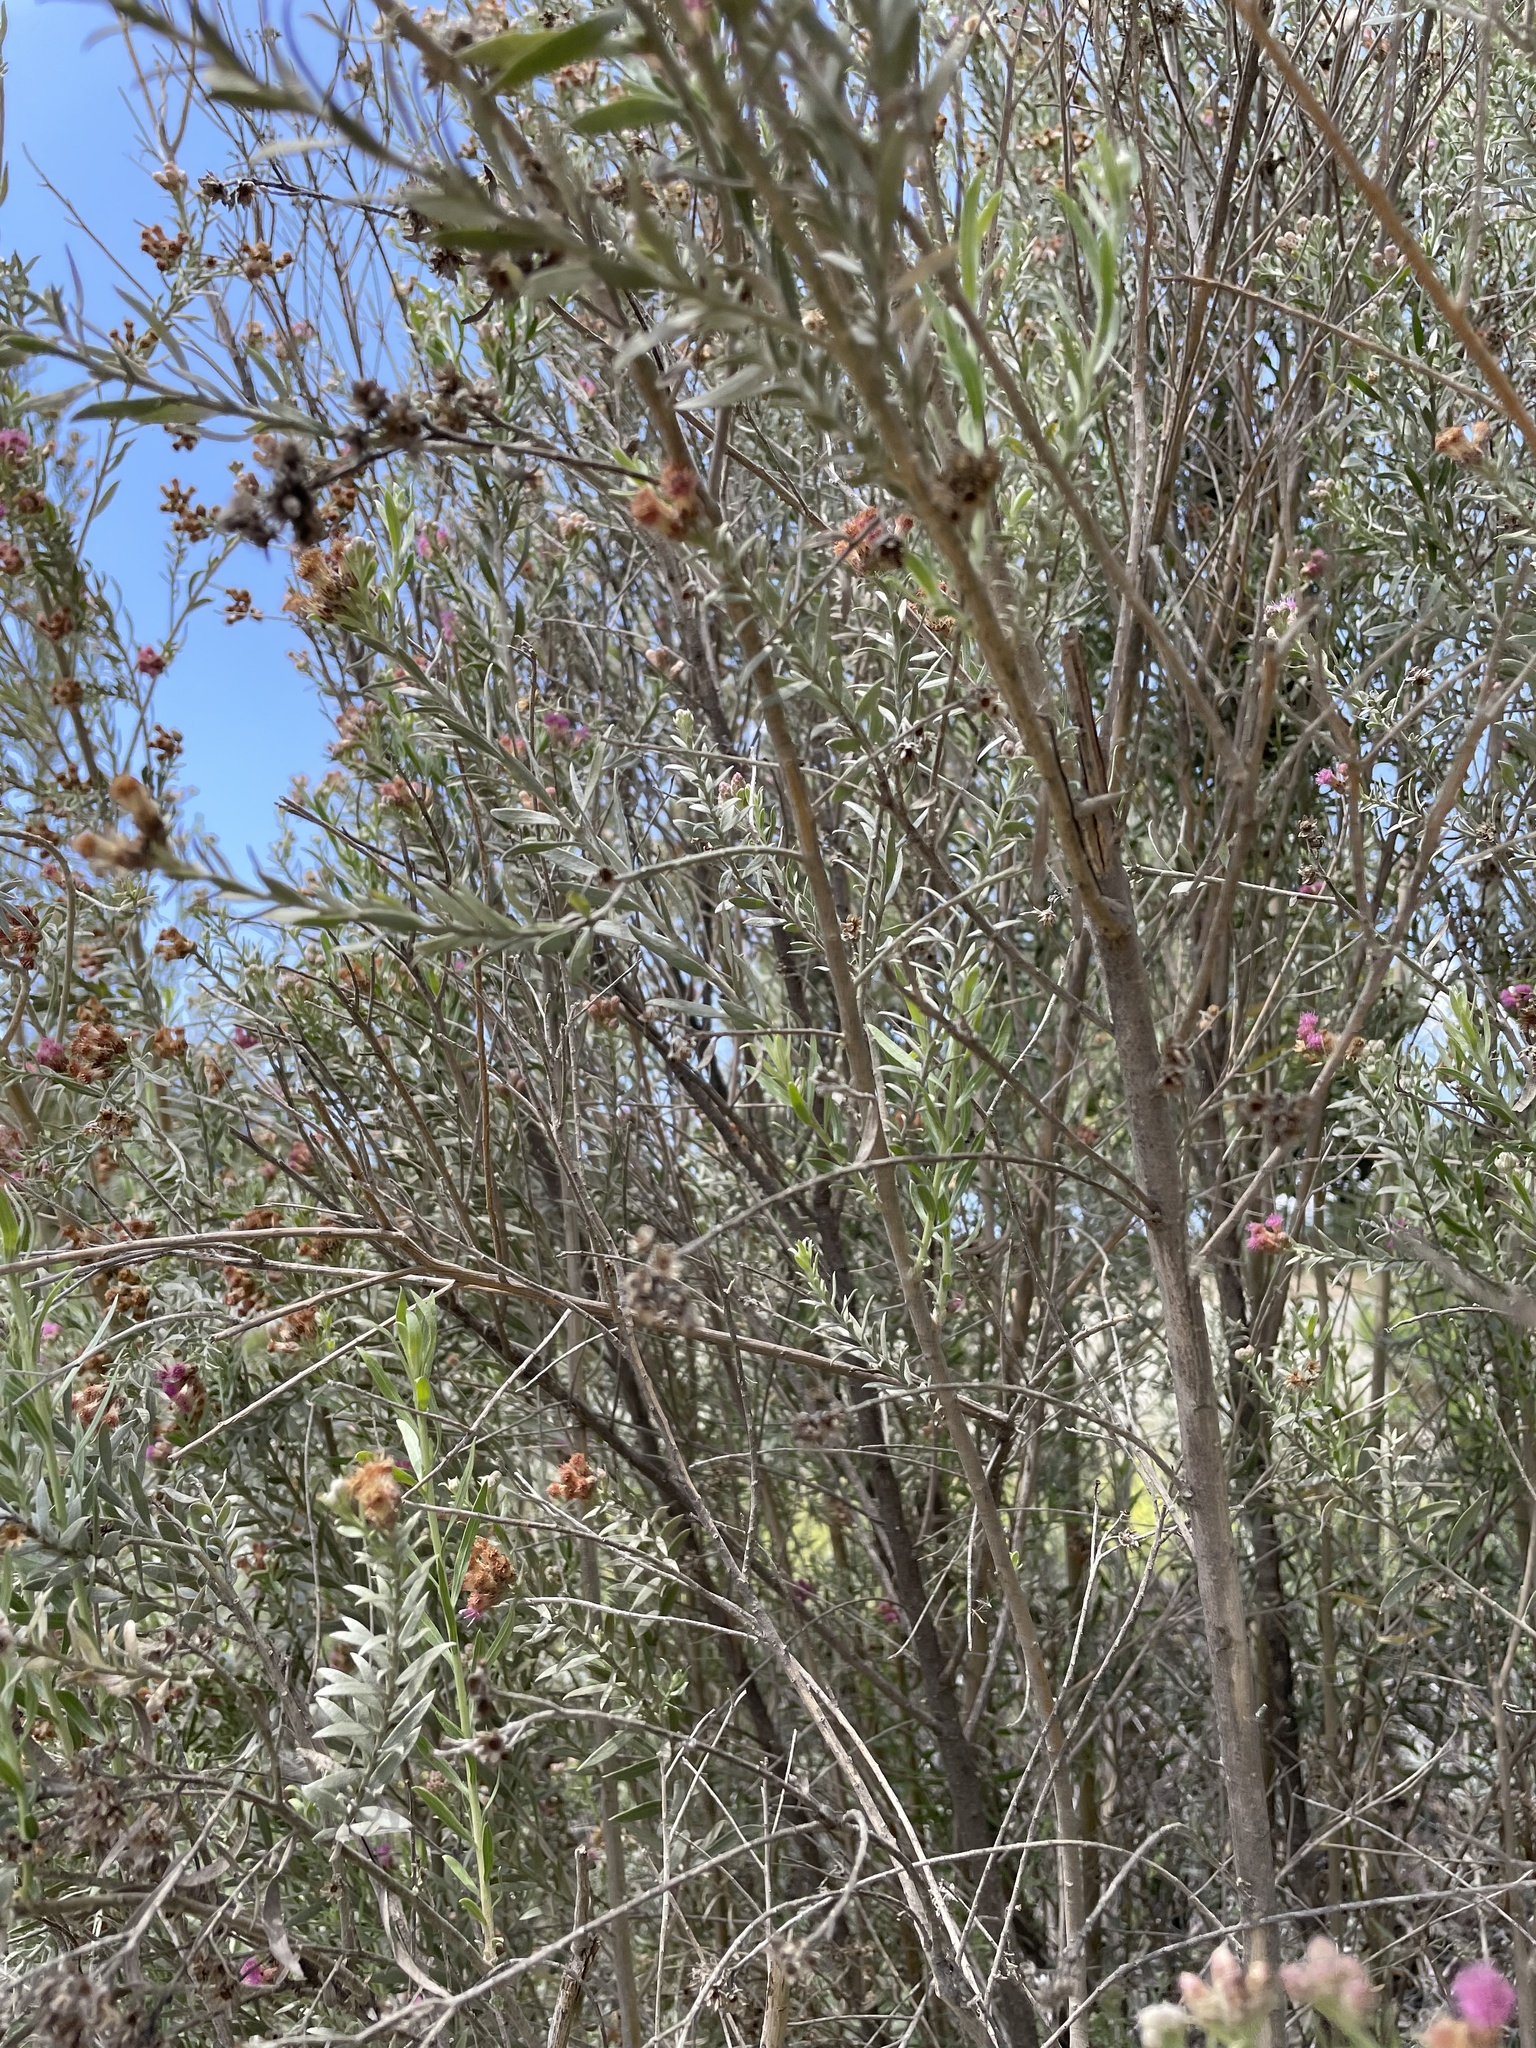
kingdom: Plantae
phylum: Tracheophyta
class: Magnoliopsida
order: Asterales
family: Asteraceae
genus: Pluchea
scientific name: Pluchea sericea
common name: Arrow-weed
